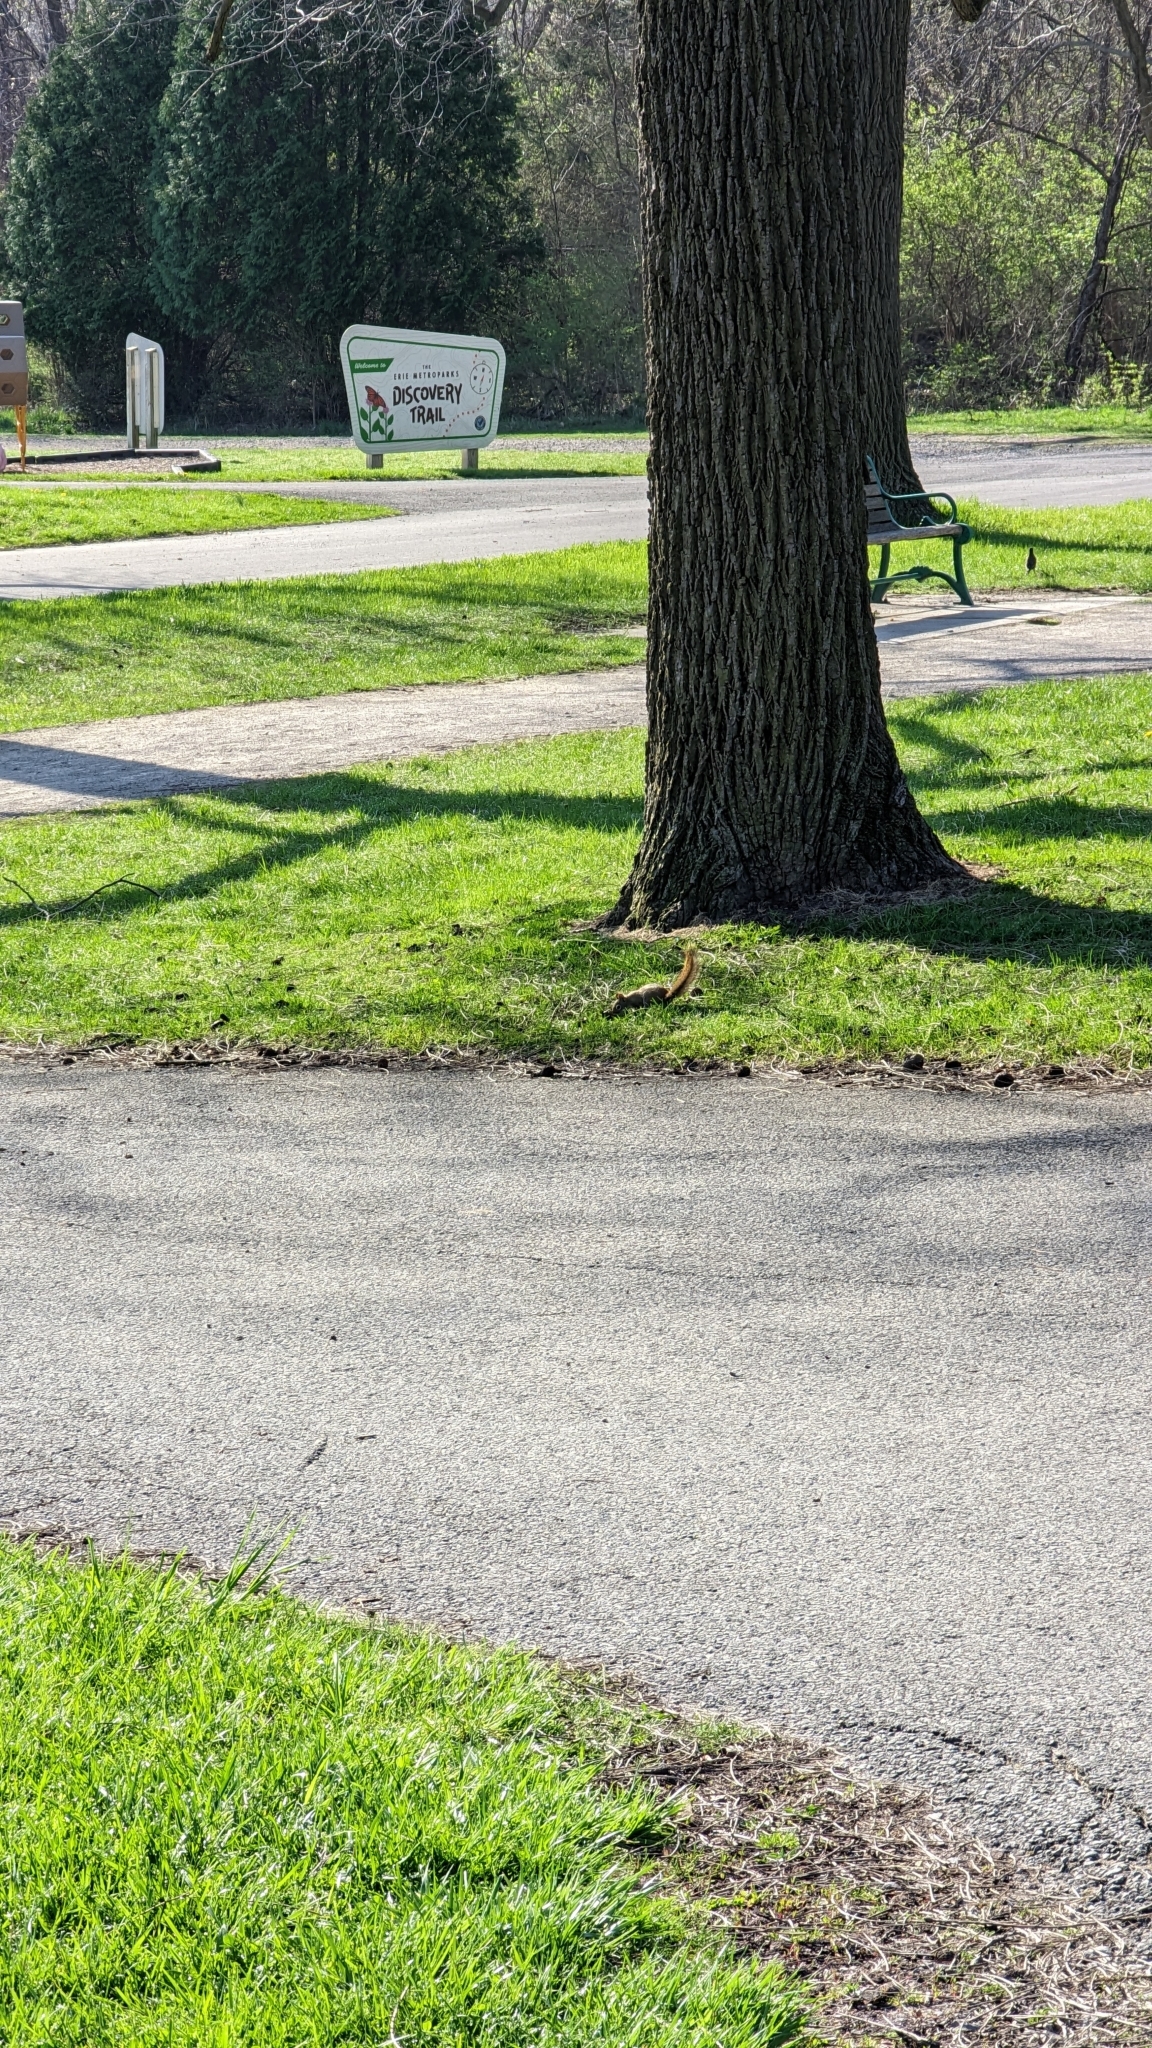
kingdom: Animalia
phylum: Chordata
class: Mammalia
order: Rodentia
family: Sciuridae
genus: Tamiasciurus
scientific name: Tamiasciurus hudsonicus
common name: Red squirrel
